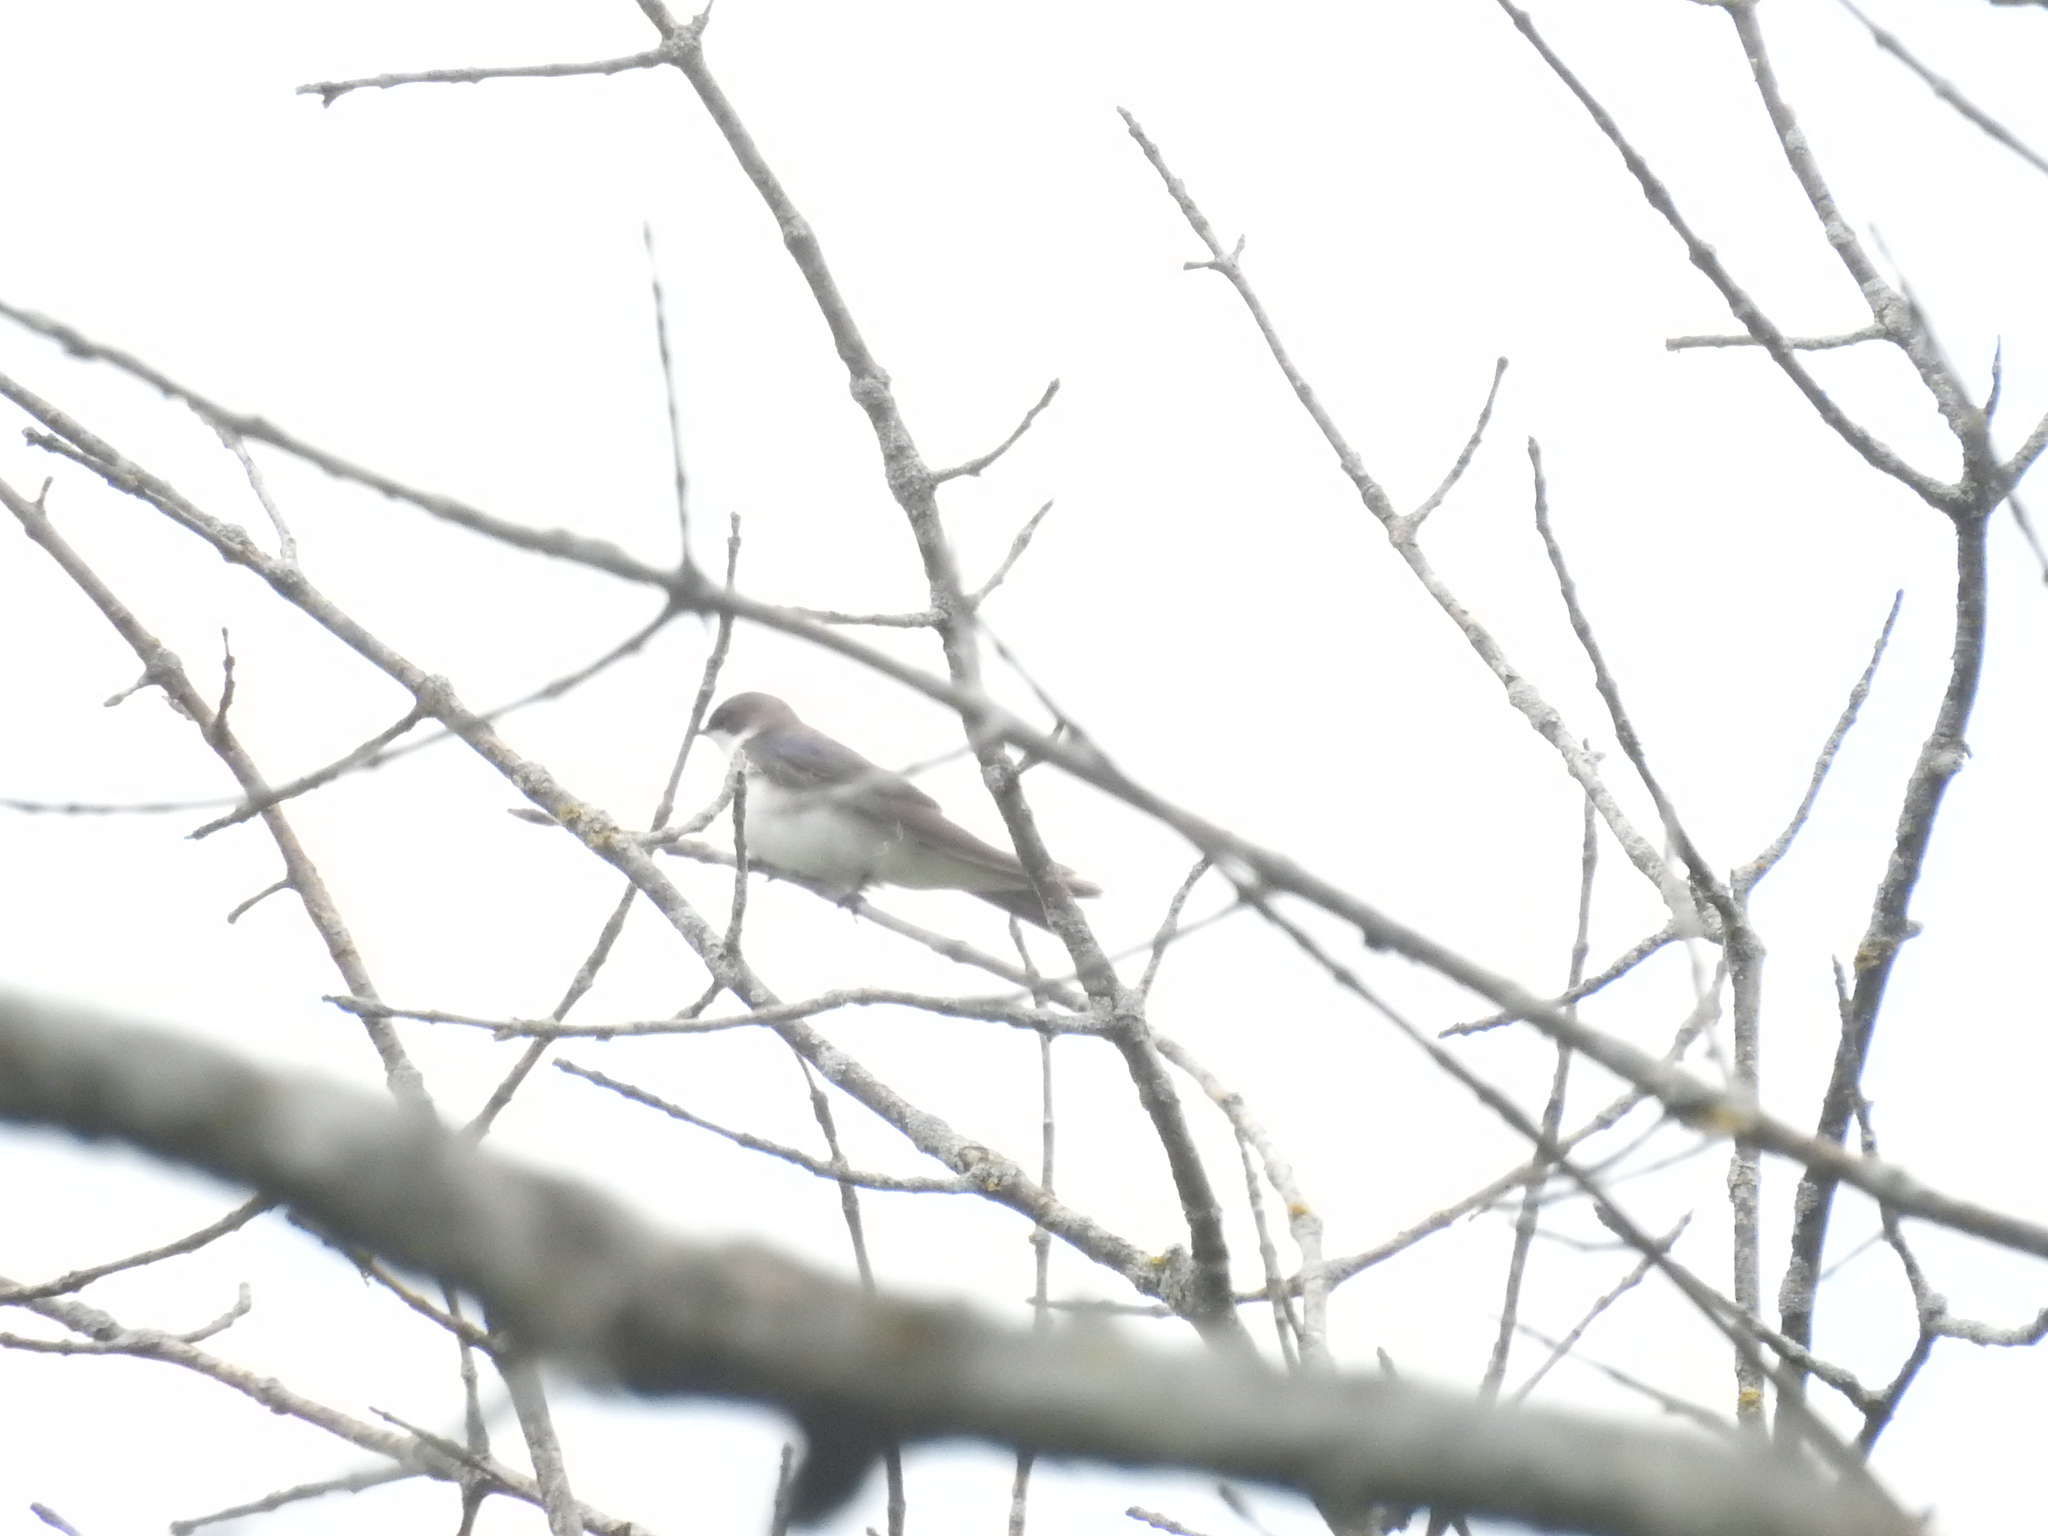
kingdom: Animalia
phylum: Chordata
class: Aves
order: Passeriformes
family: Hirundinidae
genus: Tachycineta
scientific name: Tachycineta bicolor
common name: Tree swallow
